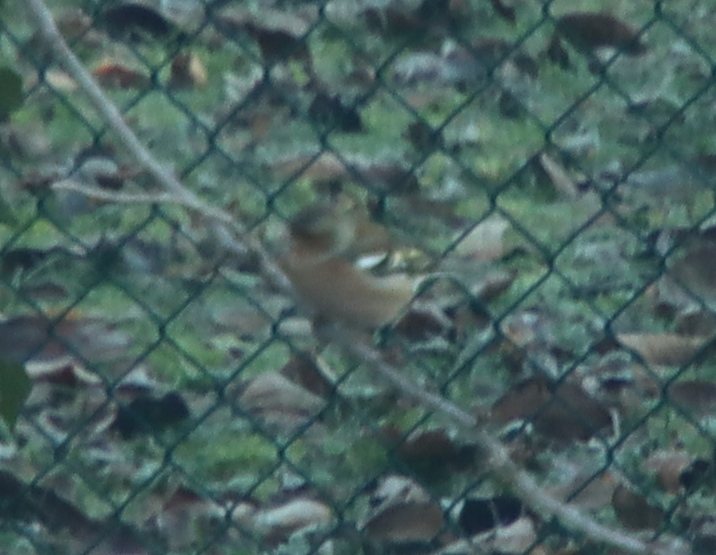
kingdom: Animalia
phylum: Chordata
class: Aves
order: Passeriformes
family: Fringillidae
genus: Fringilla
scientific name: Fringilla coelebs
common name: Common chaffinch
